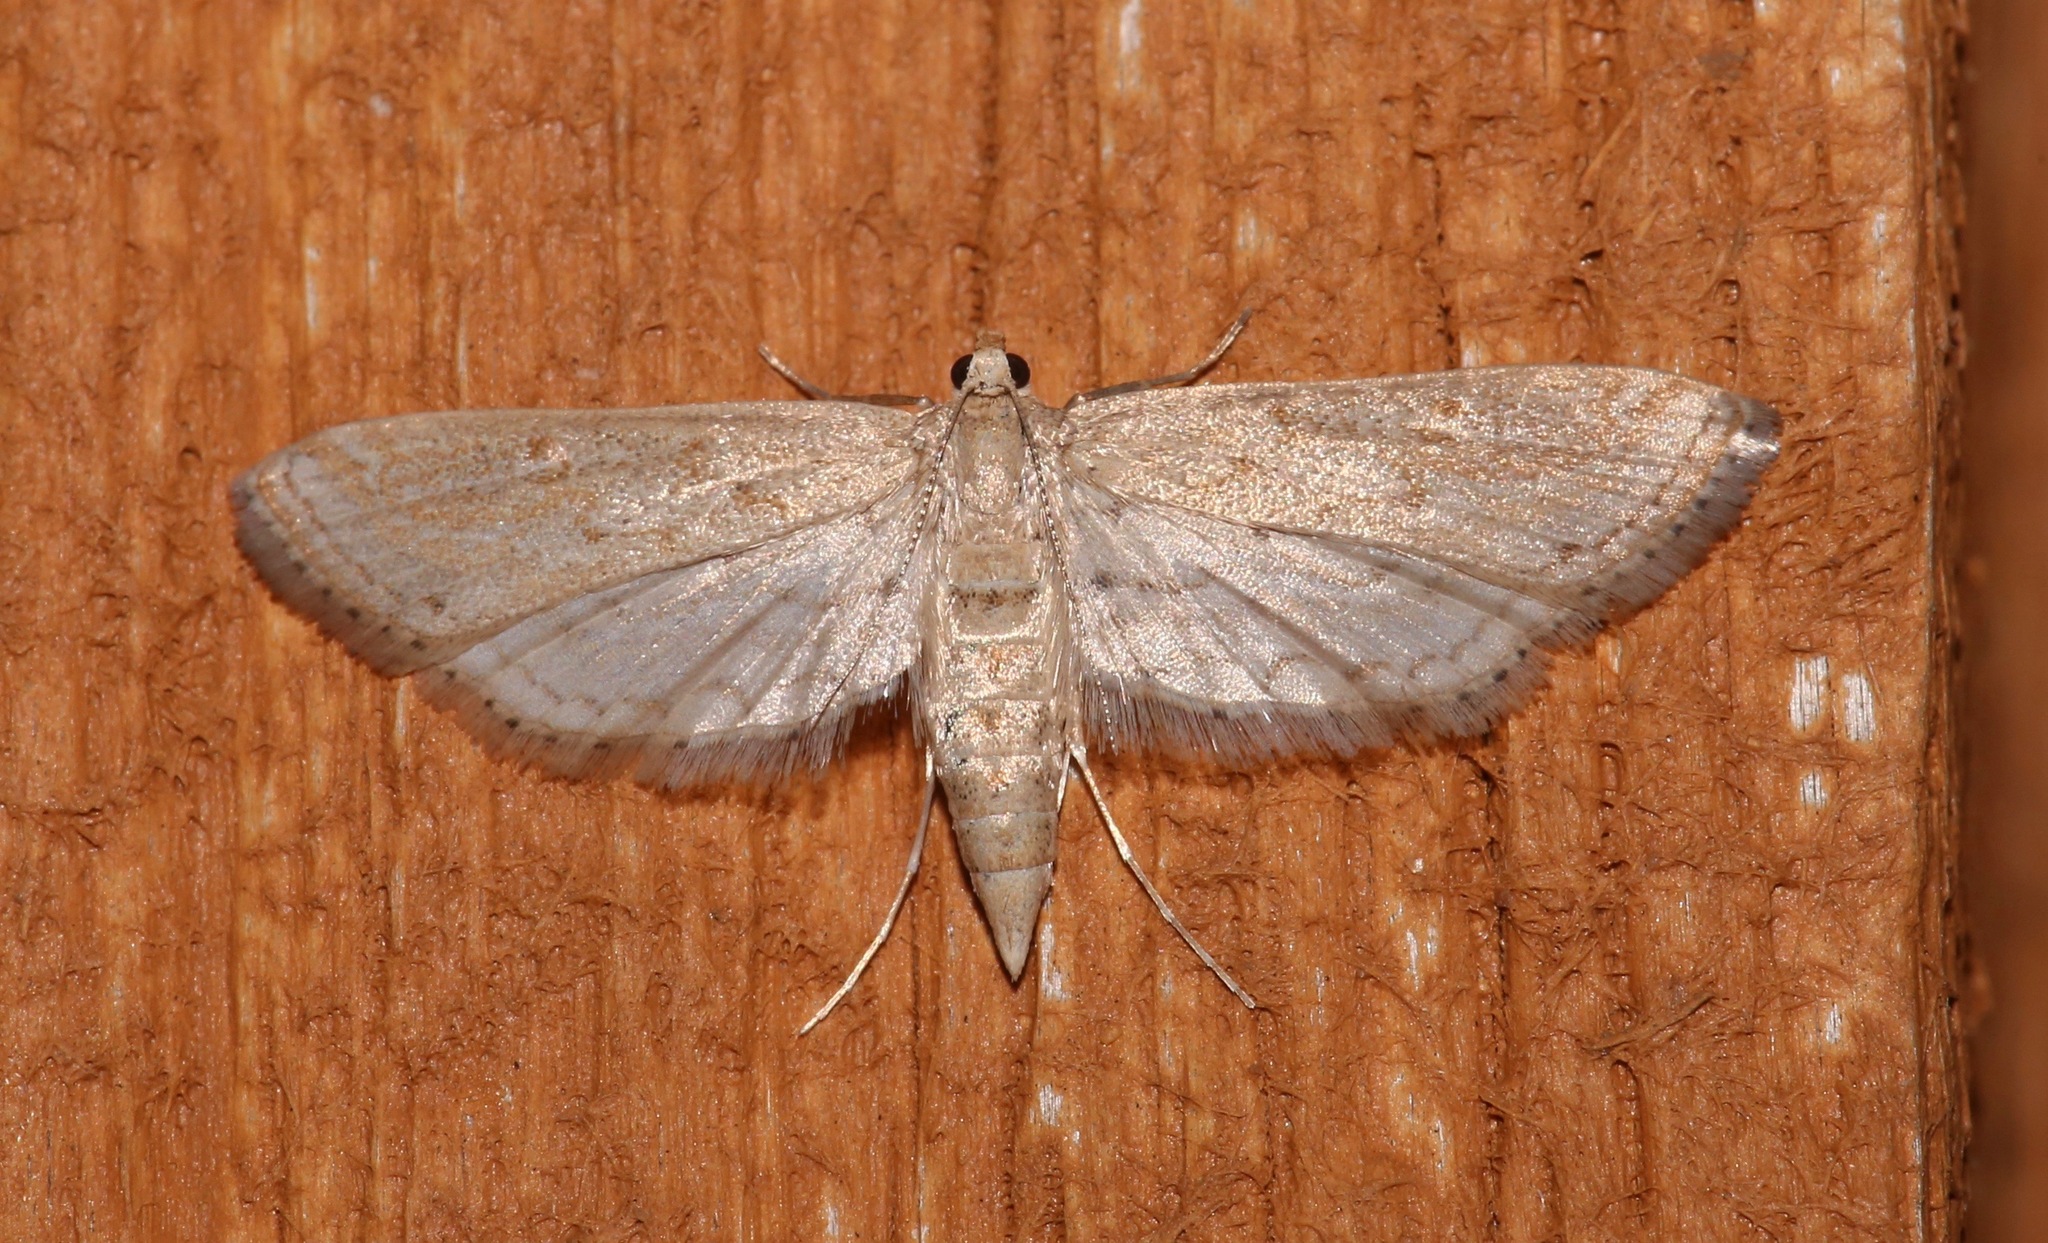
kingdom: Animalia
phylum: Arthropoda
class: Insecta
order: Lepidoptera
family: Crambidae
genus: Parapoynx
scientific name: Parapoynx allionealis
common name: Bladderwort casemaker
